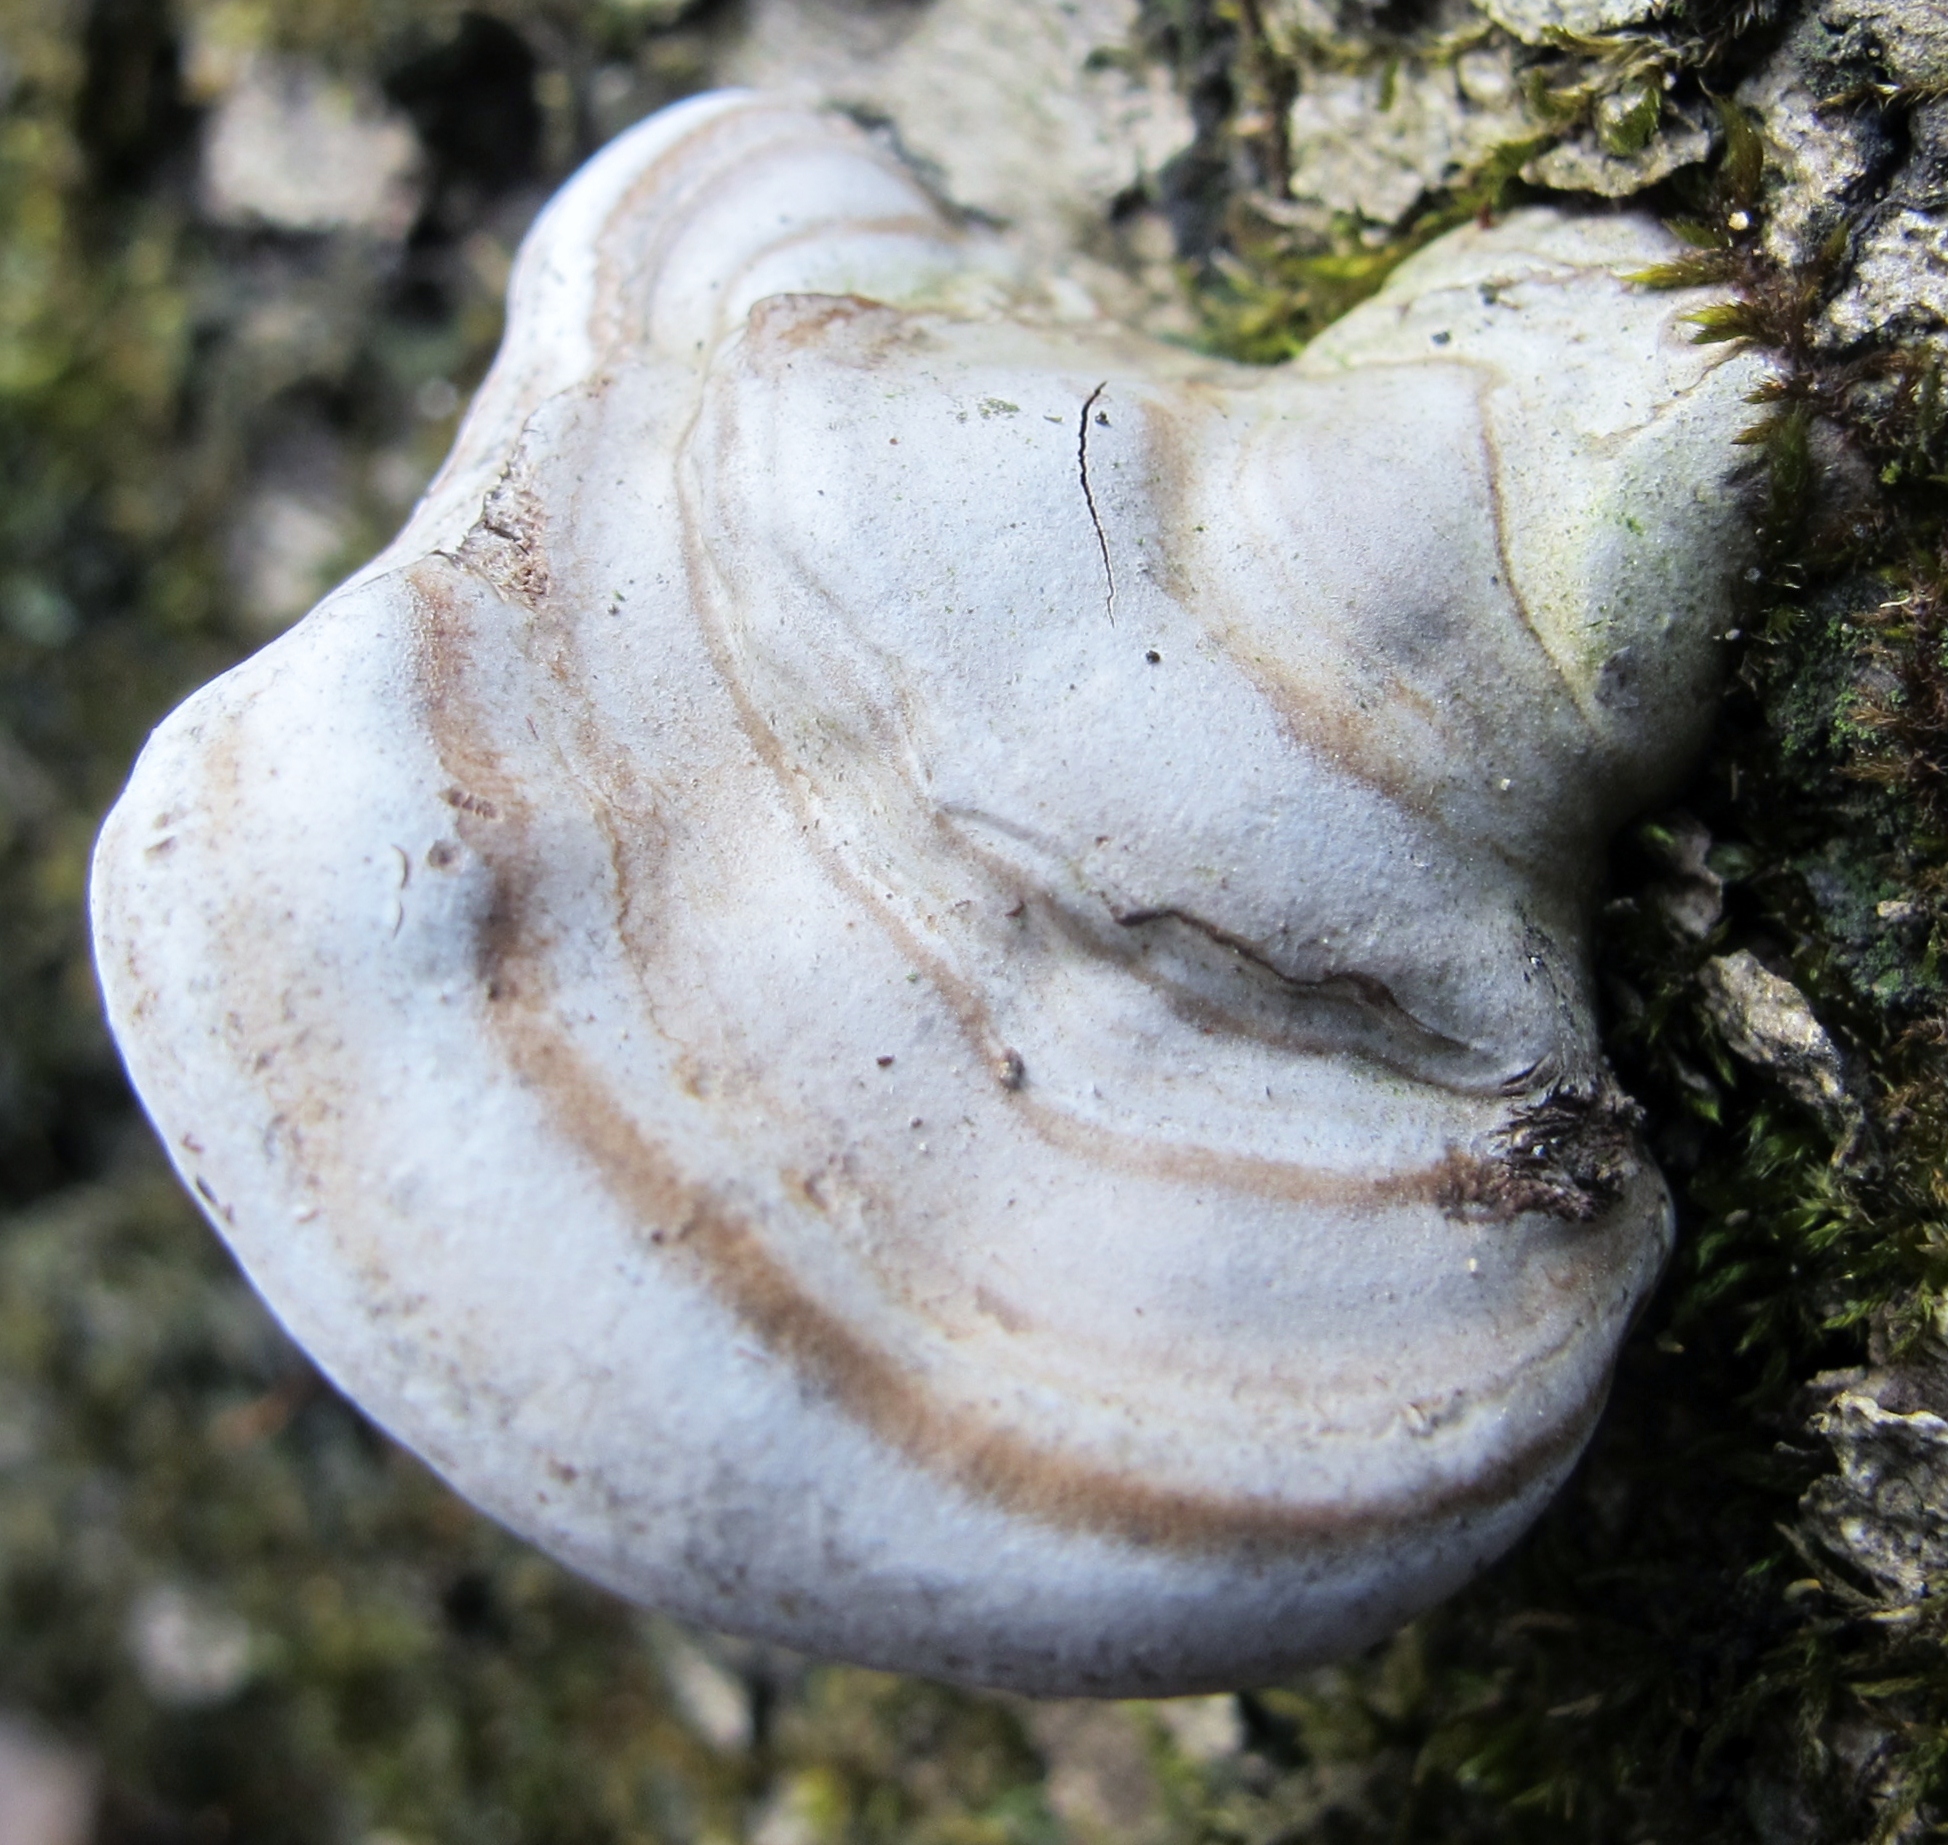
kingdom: Fungi
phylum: Basidiomycota
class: Agaricomycetes
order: Polyporales
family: Polyporaceae
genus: Ganoderma
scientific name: Ganoderma applanatum
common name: Artist's bracket
